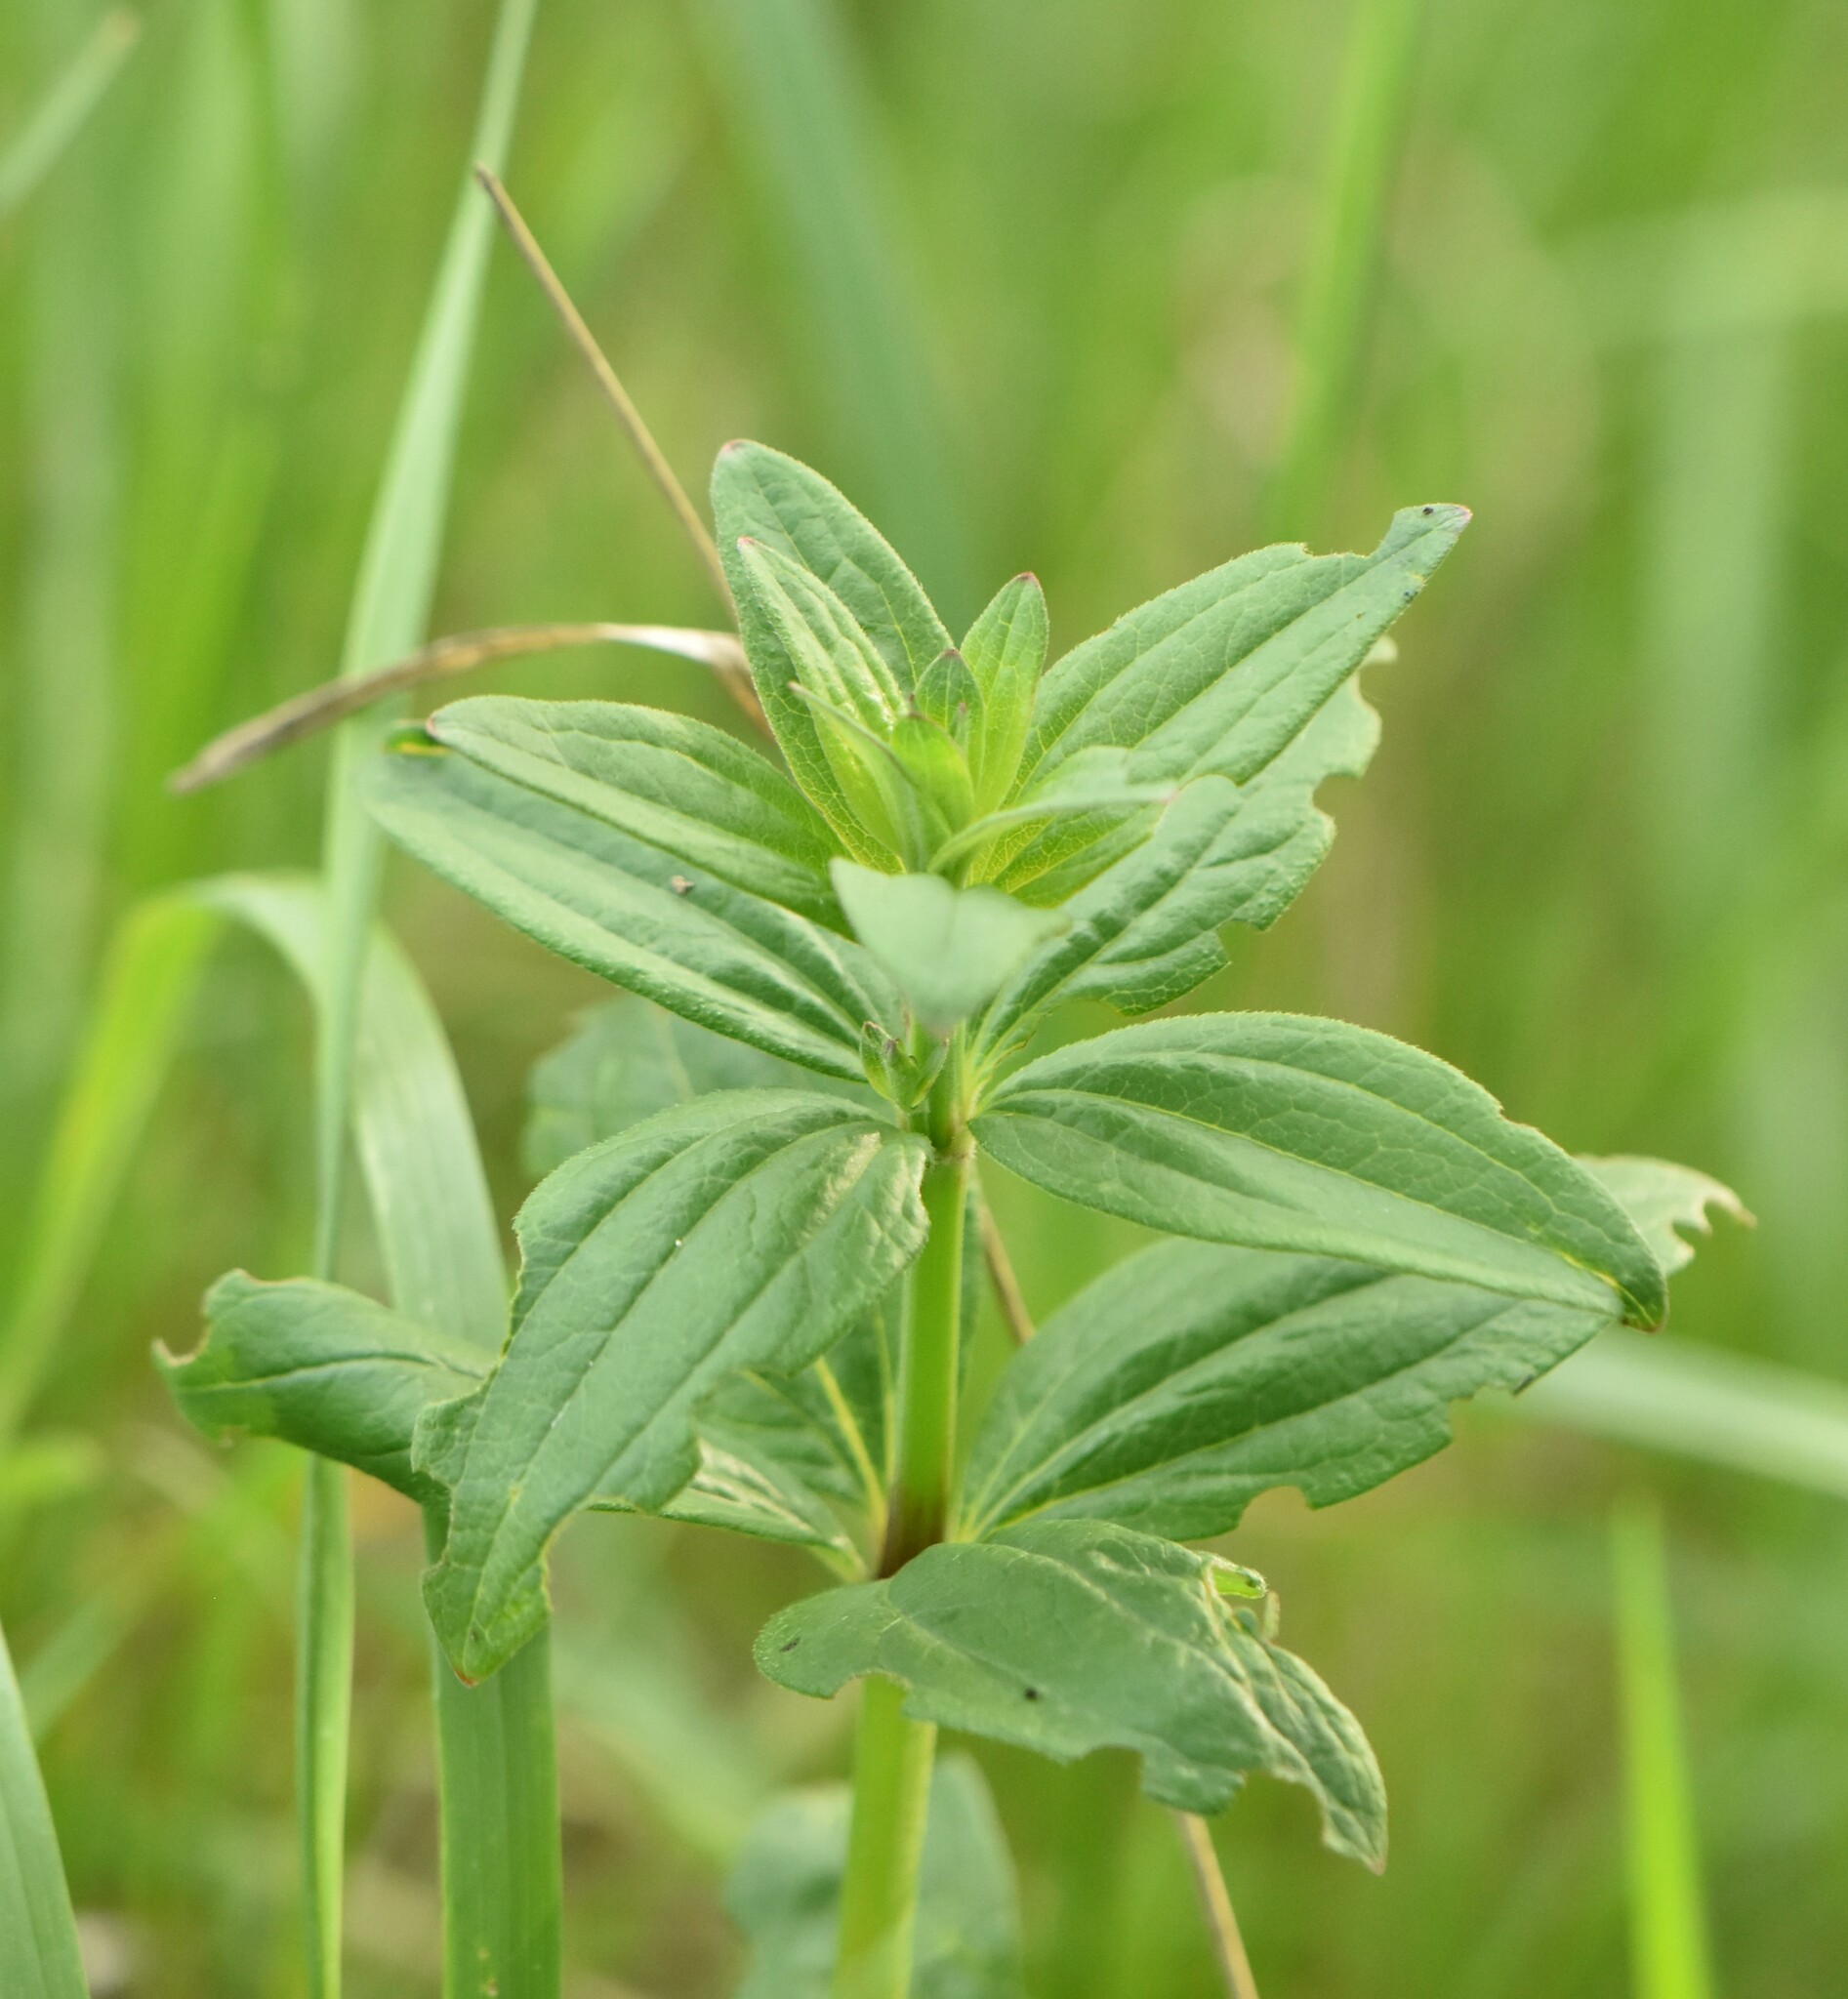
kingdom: Plantae
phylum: Tracheophyta
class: Magnoliopsida
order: Gentianales
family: Rubiaceae
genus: Galium
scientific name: Galium rubioides
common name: European bedstraw
